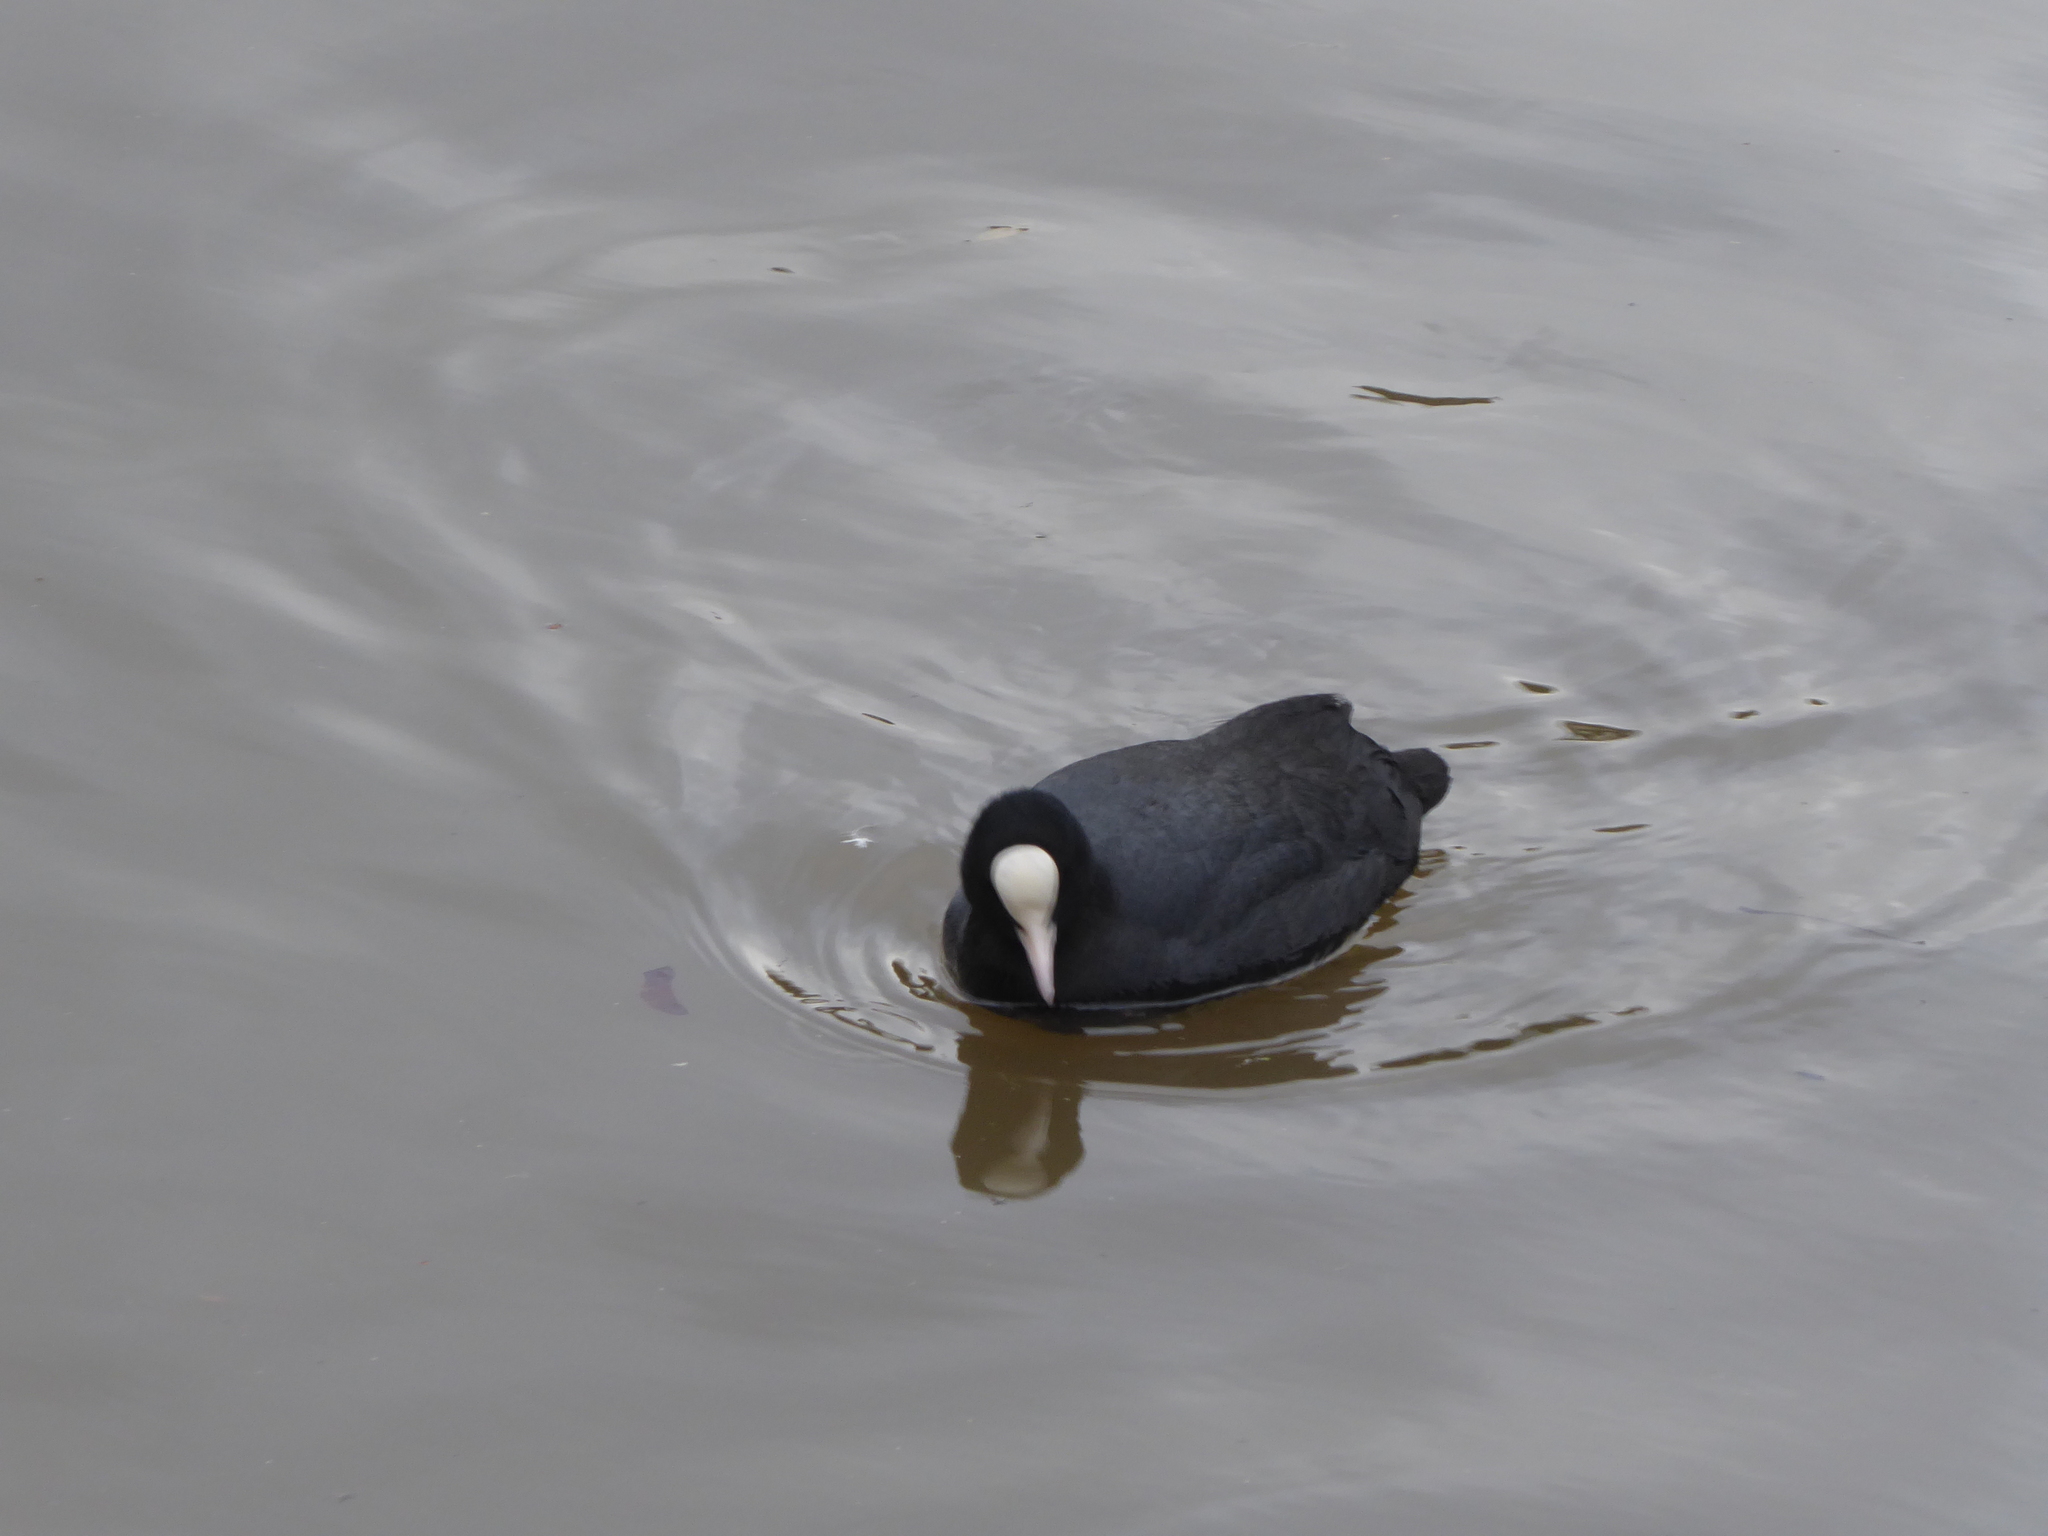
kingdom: Animalia
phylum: Chordata
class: Aves
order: Gruiformes
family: Rallidae
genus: Fulica
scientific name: Fulica atra
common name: Eurasian coot
